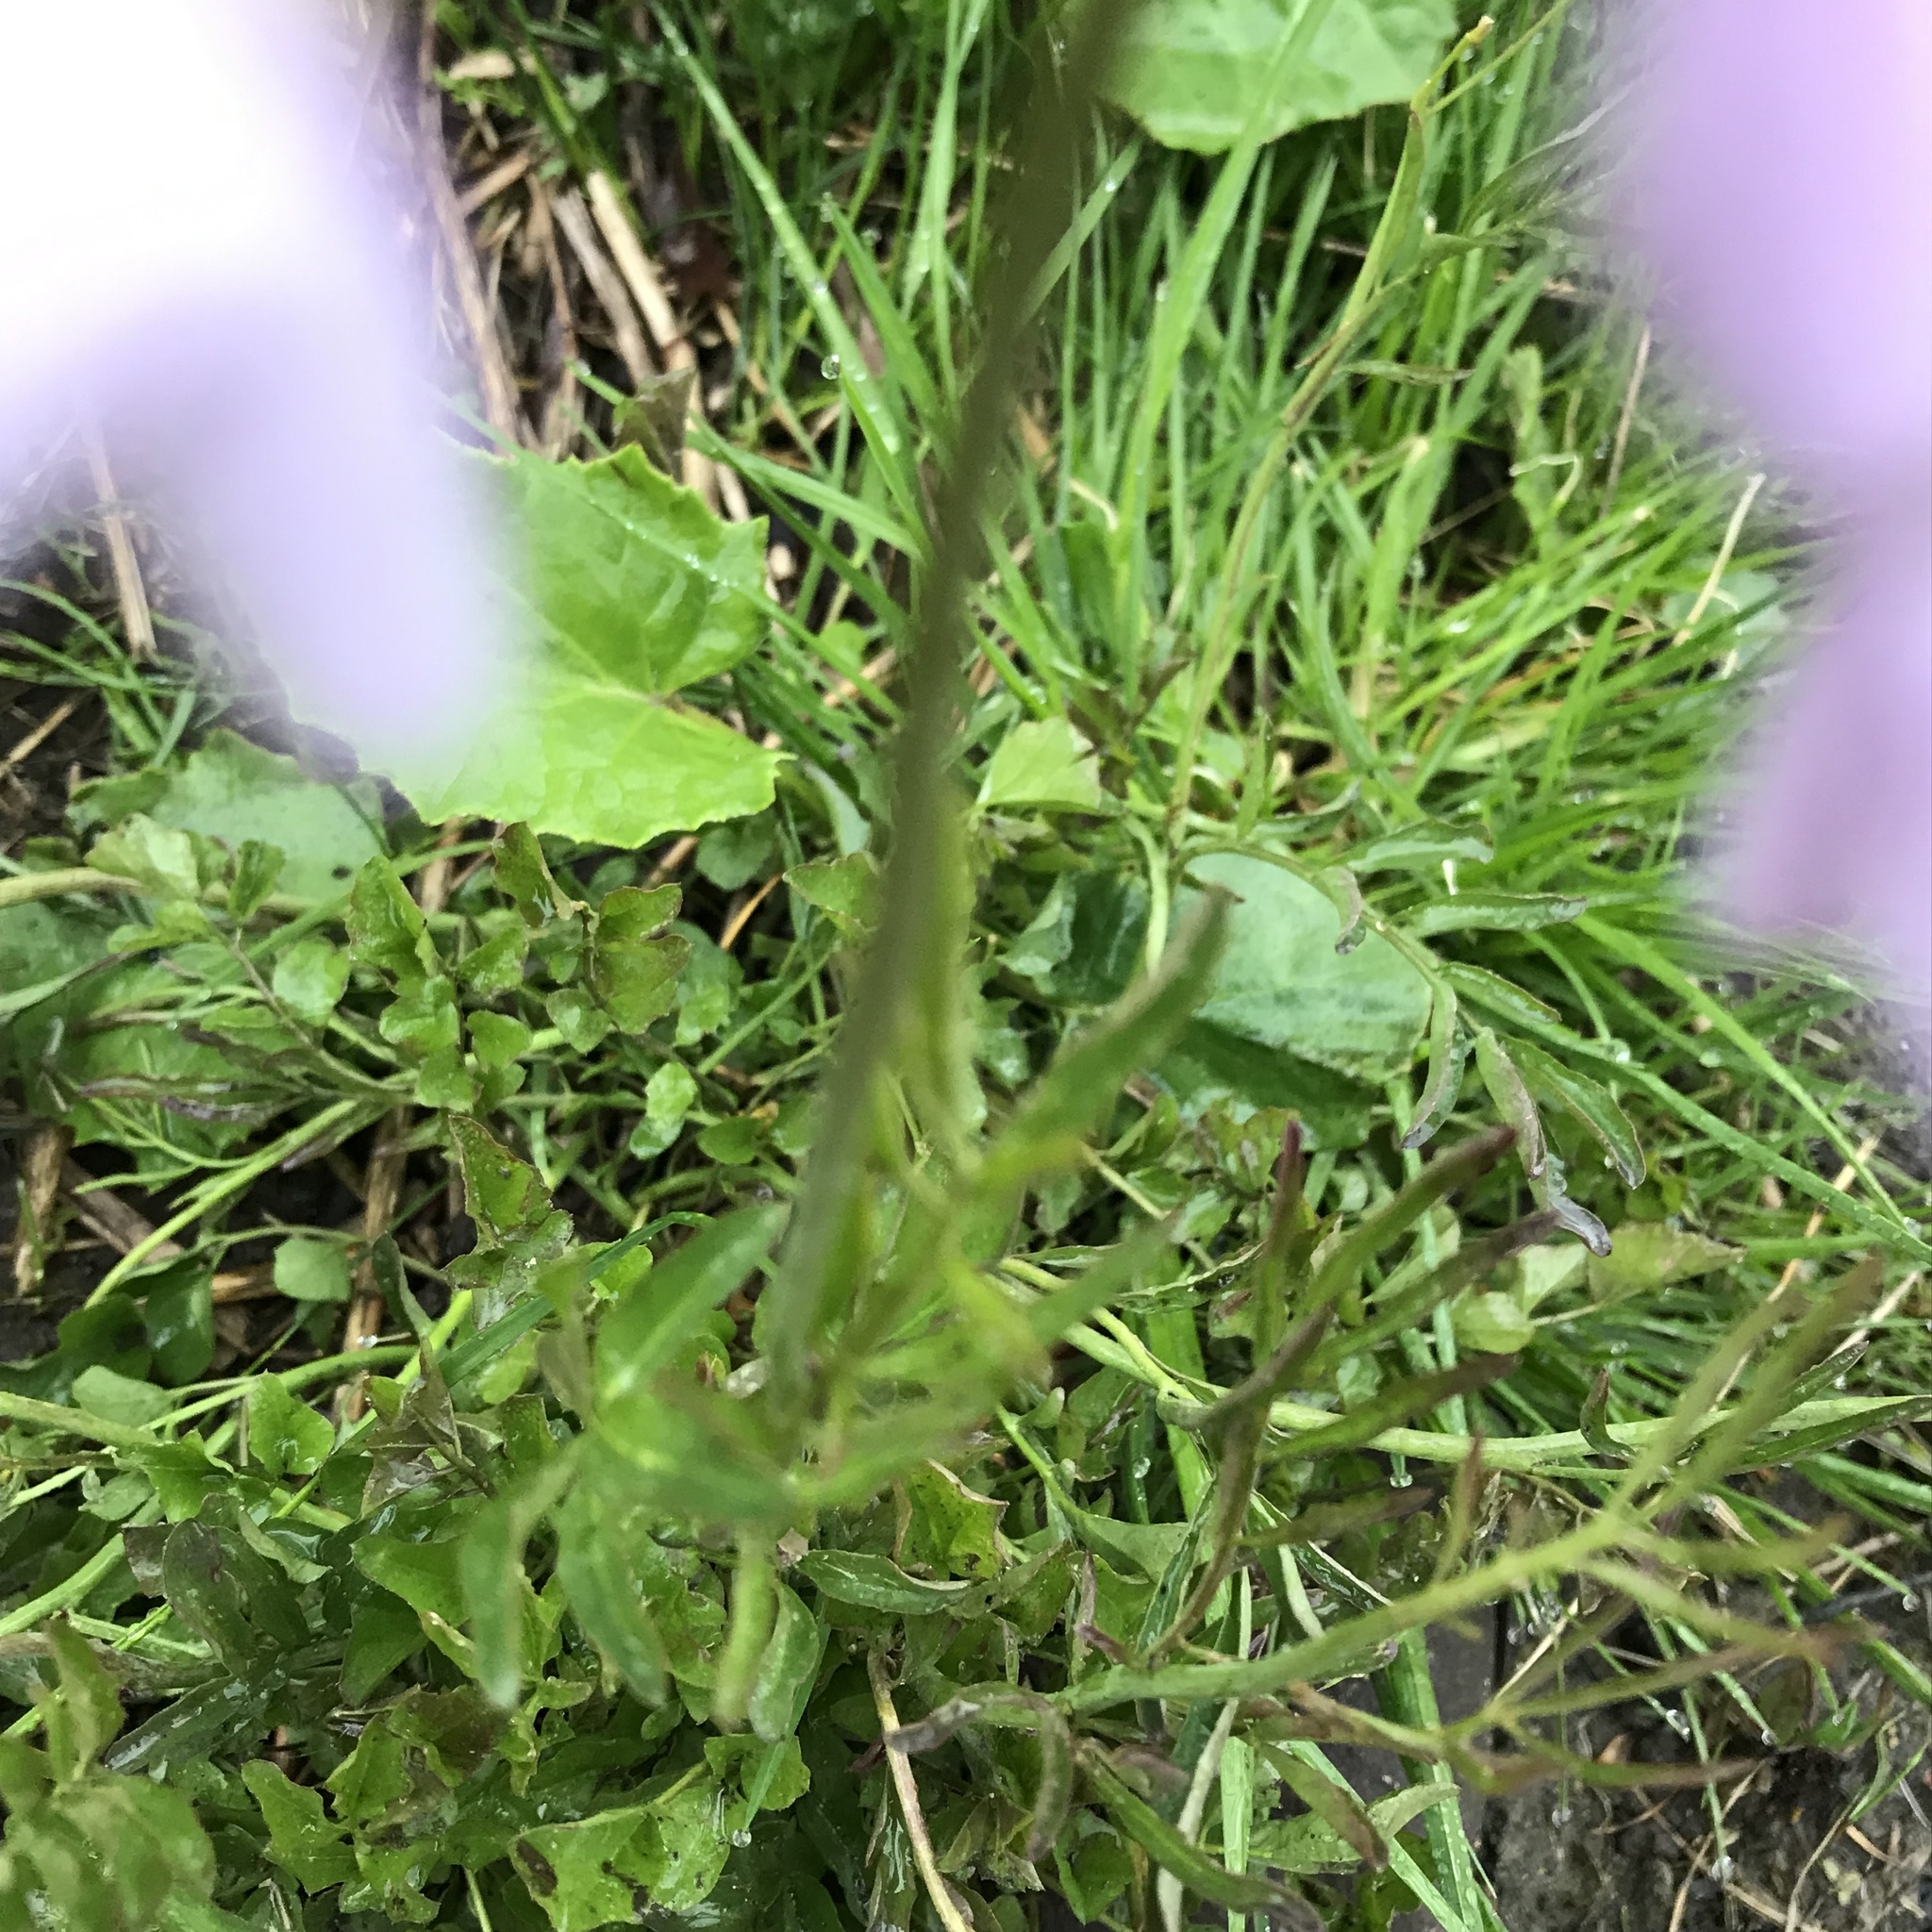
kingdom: Plantae
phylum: Tracheophyta
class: Magnoliopsida
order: Brassicales
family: Brassicaceae
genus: Cardamine
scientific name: Cardamine pratensis
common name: Cuckoo flower
